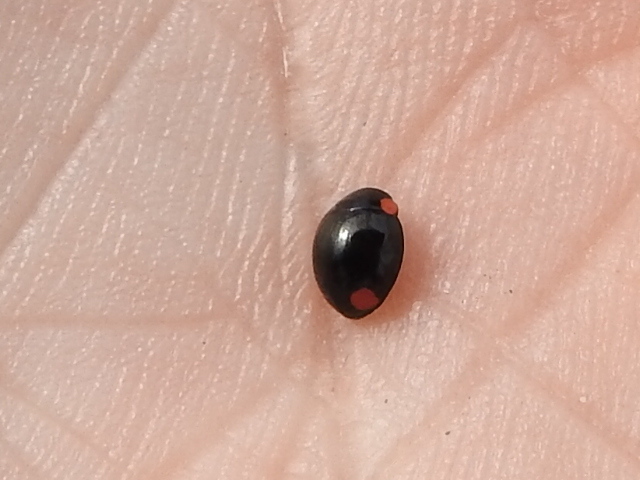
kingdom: Animalia
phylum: Arthropoda
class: Insecta
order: Coleoptera
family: Coccinellidae
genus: Hyperaspis
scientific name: Hyperaspis bigeminata
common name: Bigeminate sigil lady beetle
